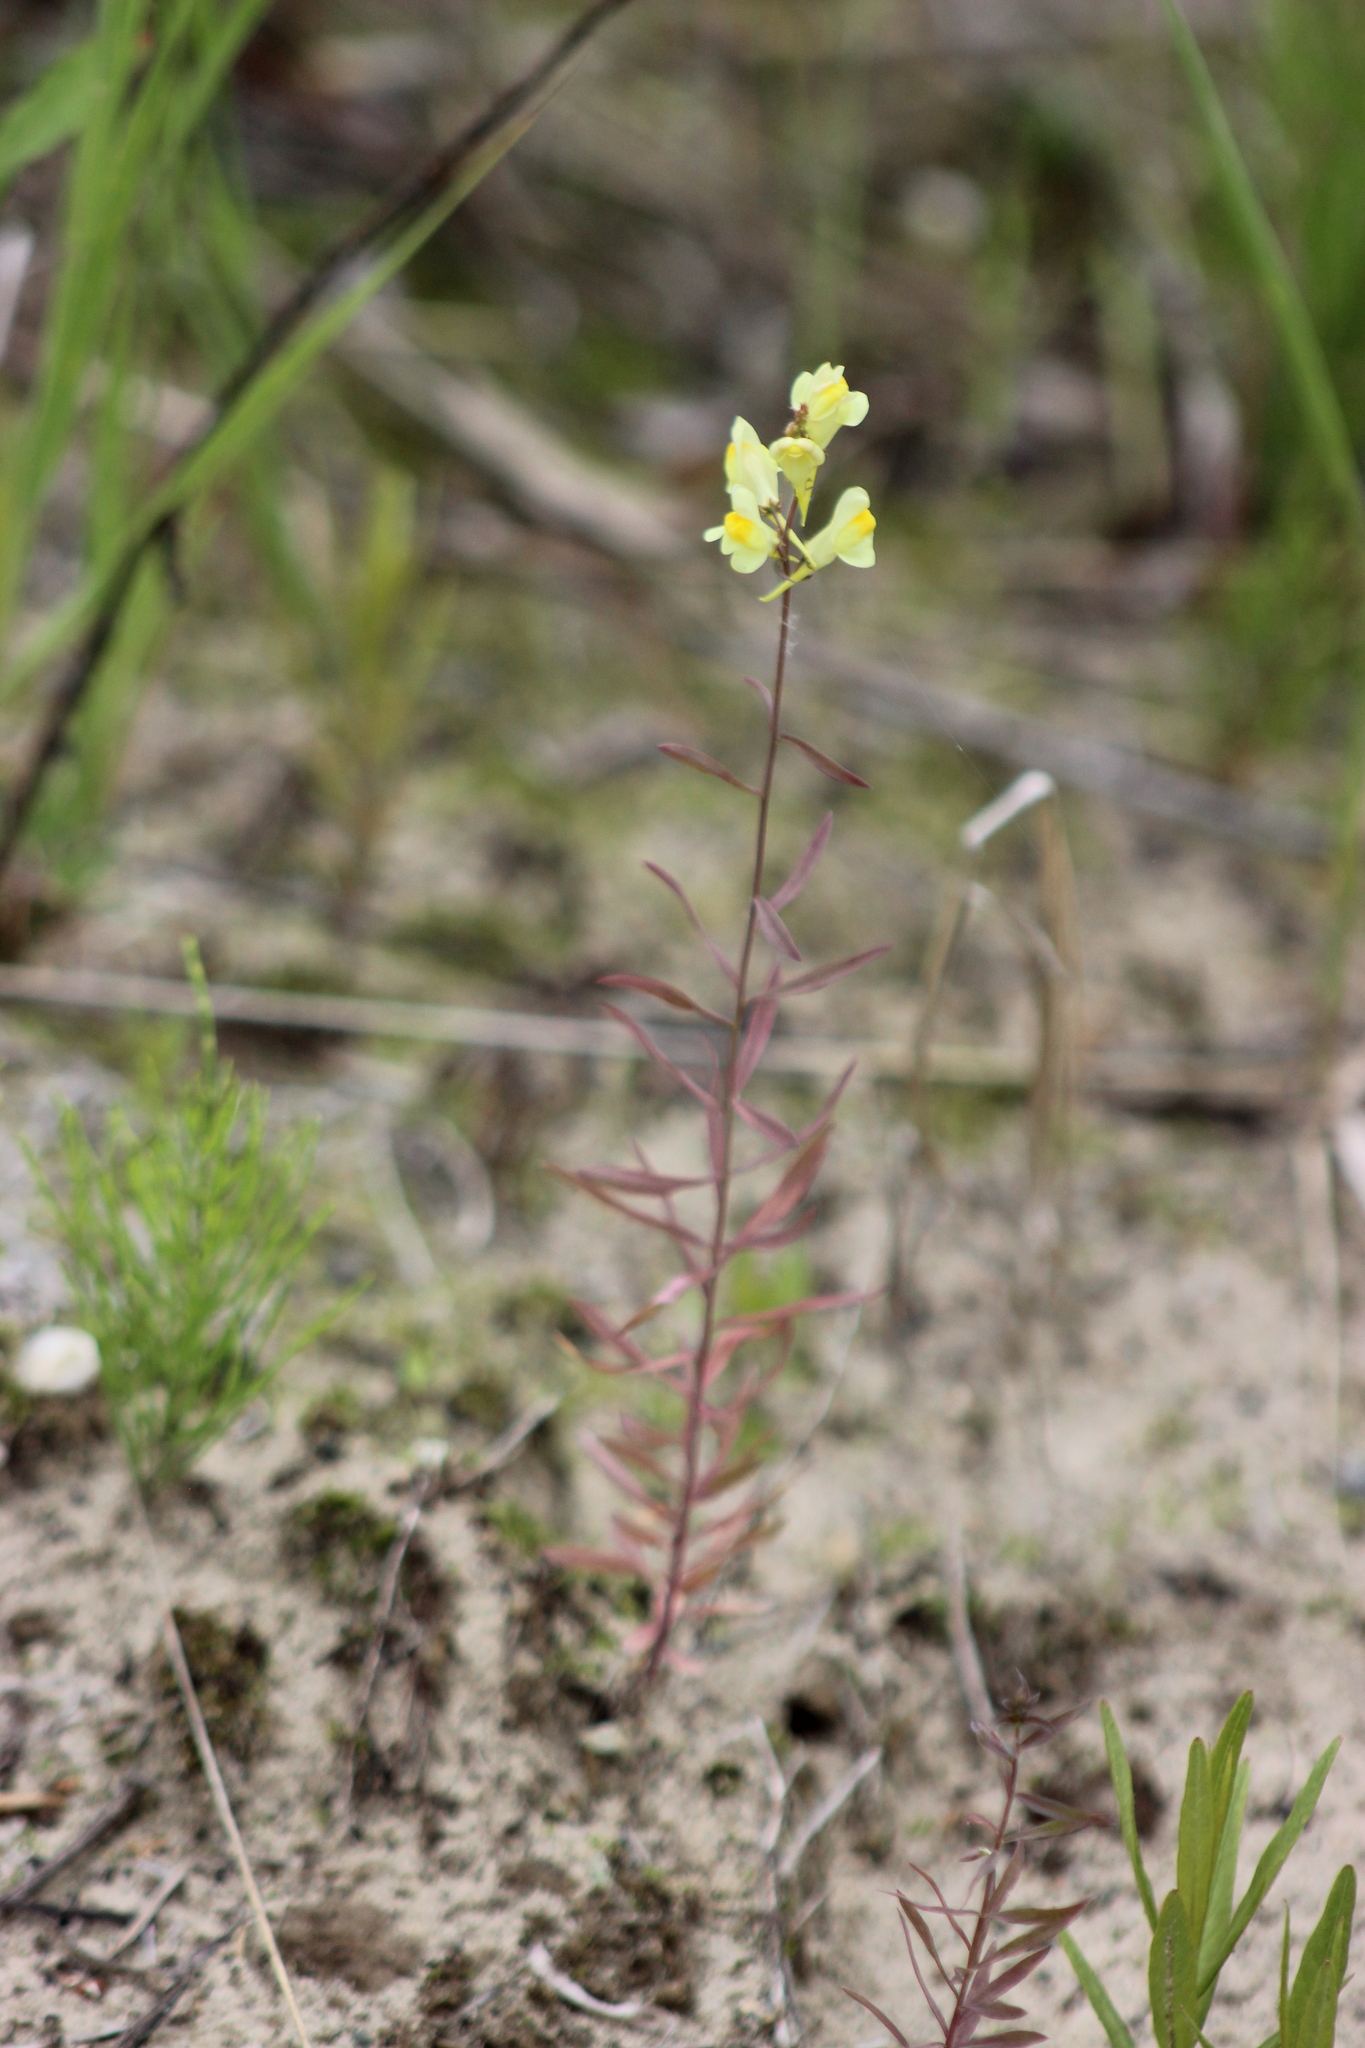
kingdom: Plantae
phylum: Tracheophyta
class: Magnoliopsida
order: Lamiales
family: Plantaginaceae
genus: Linaria
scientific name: Linaria vulgaris
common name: Butter and eggs
